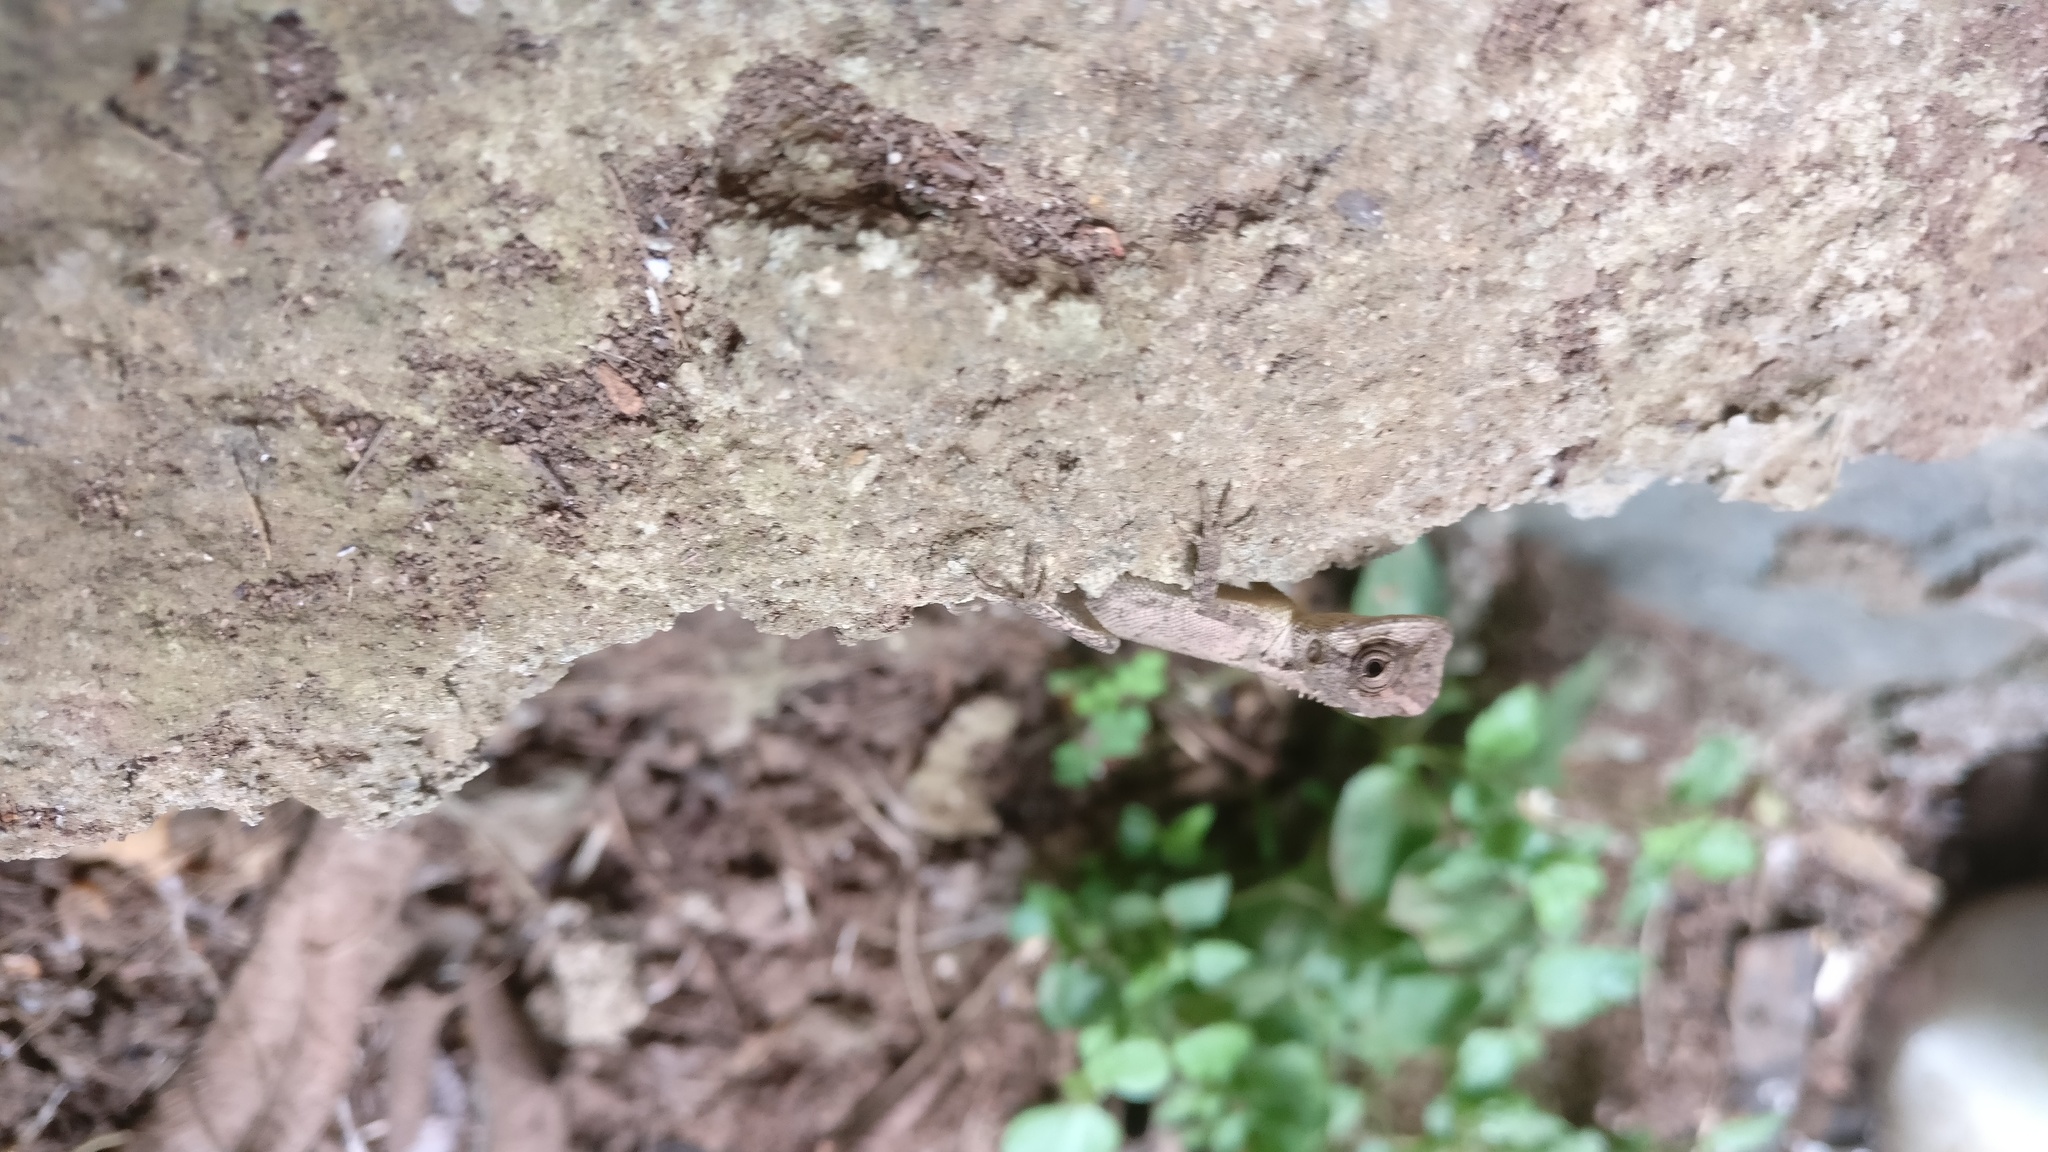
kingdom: Animalia
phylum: Chordata
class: Squamata
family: Agamidae
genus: Monilesaurus
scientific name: Monilesaurus rouxii
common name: Roux's forest lizard
